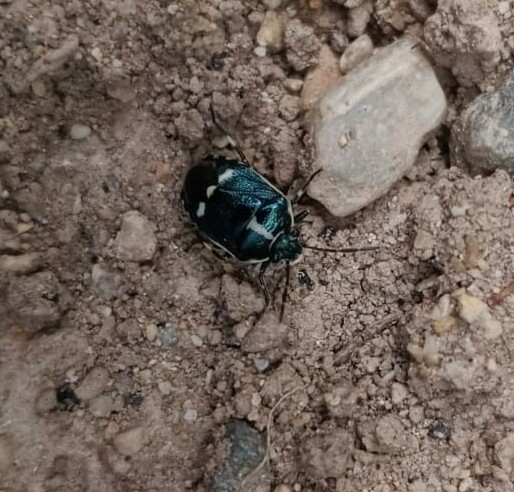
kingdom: Animalia
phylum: Arthropoda
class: Insecta
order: Hemiptera
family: Pentatomidae
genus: Eurydema
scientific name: Eurydema oleracea
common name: Cabbage bug
